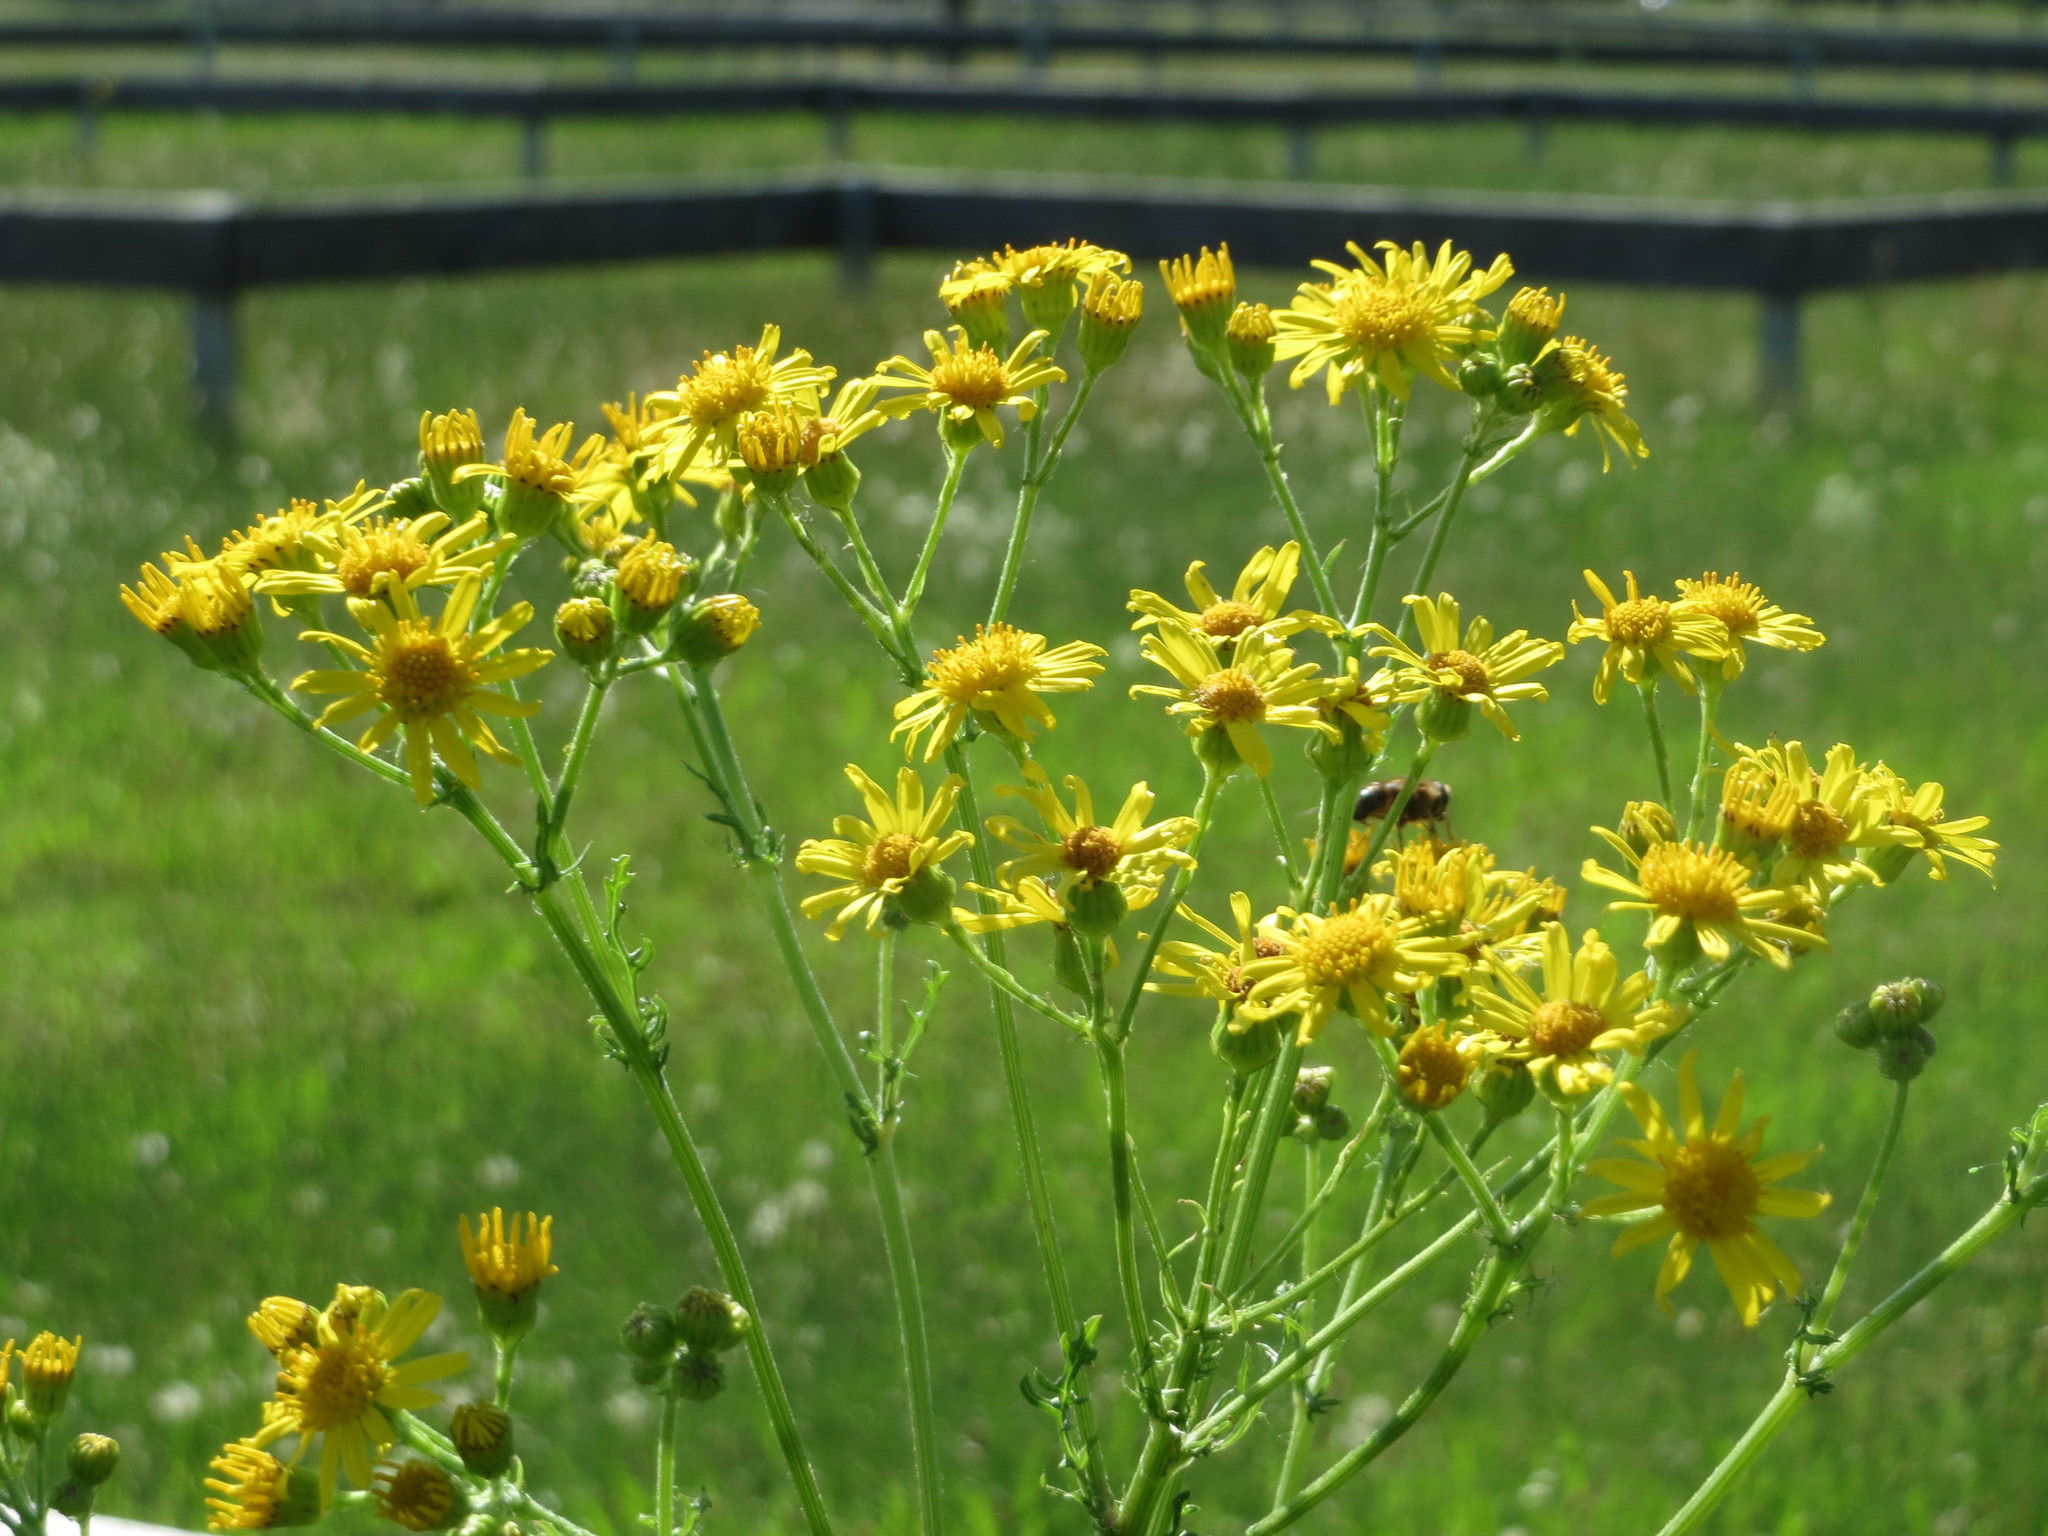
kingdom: Plantae
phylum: Tracheophyta
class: Magnoliopsida
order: Asterales
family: Asteraceae
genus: Jacobaea
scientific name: Jacobaea vulgaris
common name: Stinking willie
